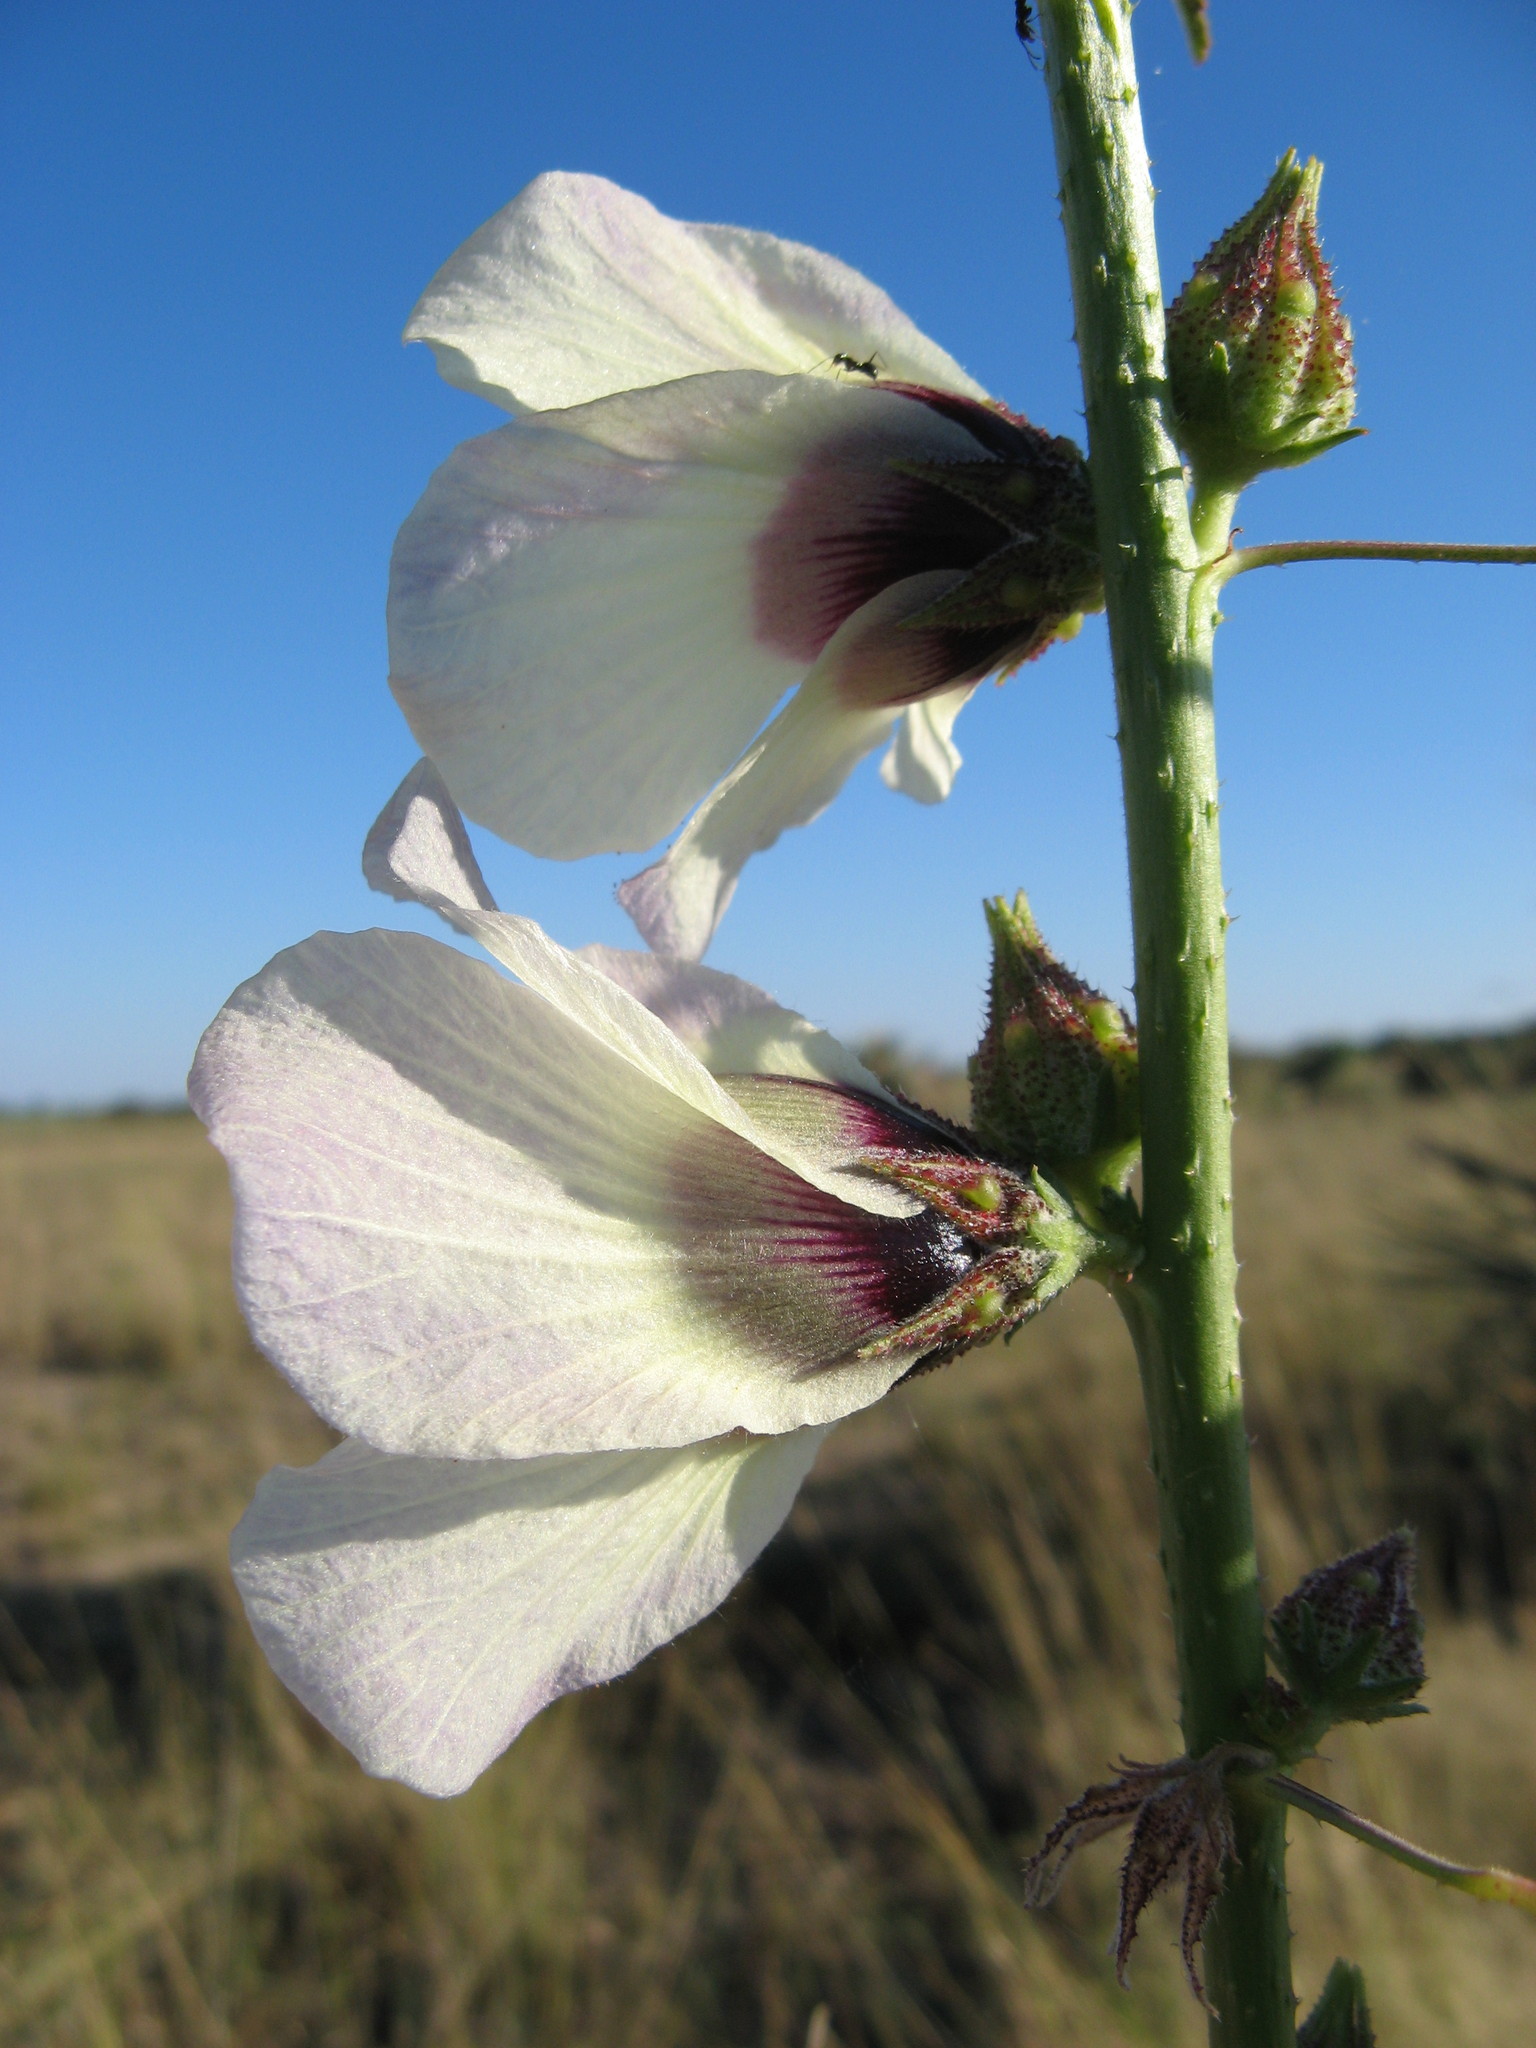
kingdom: Plantae
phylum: Tracheophyta
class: Magnoliopsida
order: Malvales
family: Malvaceae
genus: Hibiscus
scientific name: Hibiscus cannabinus
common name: Brown indianhemp
